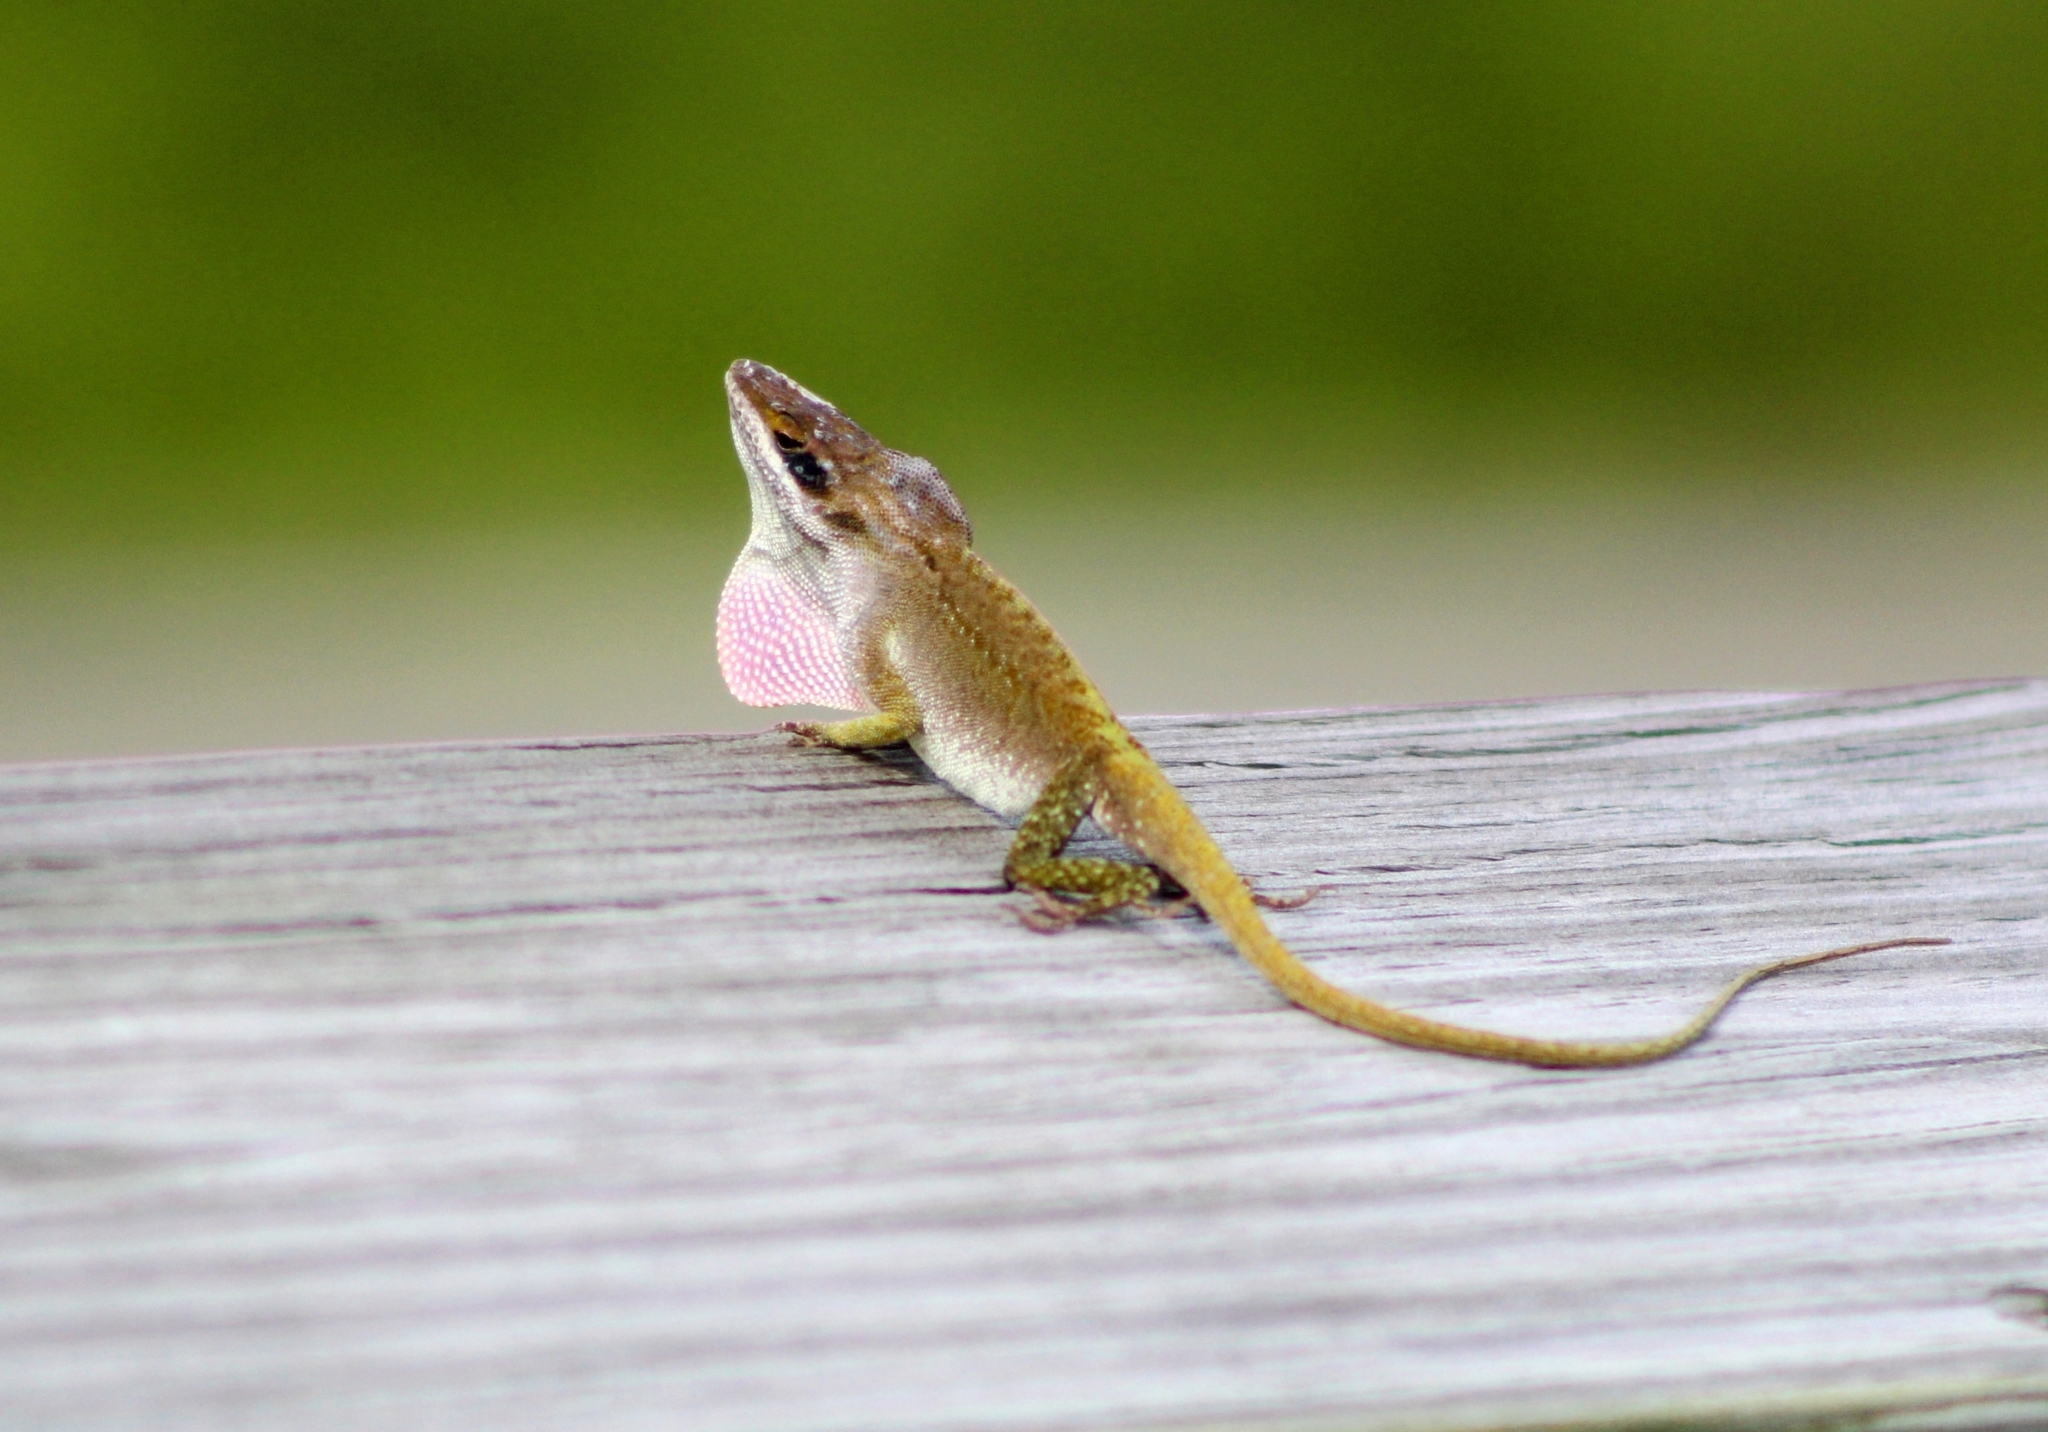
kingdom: Animalia
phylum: Chordata
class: Squamata
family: Dactyloidae
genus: Anolis
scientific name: Anolis carolinensis
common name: Green anole
